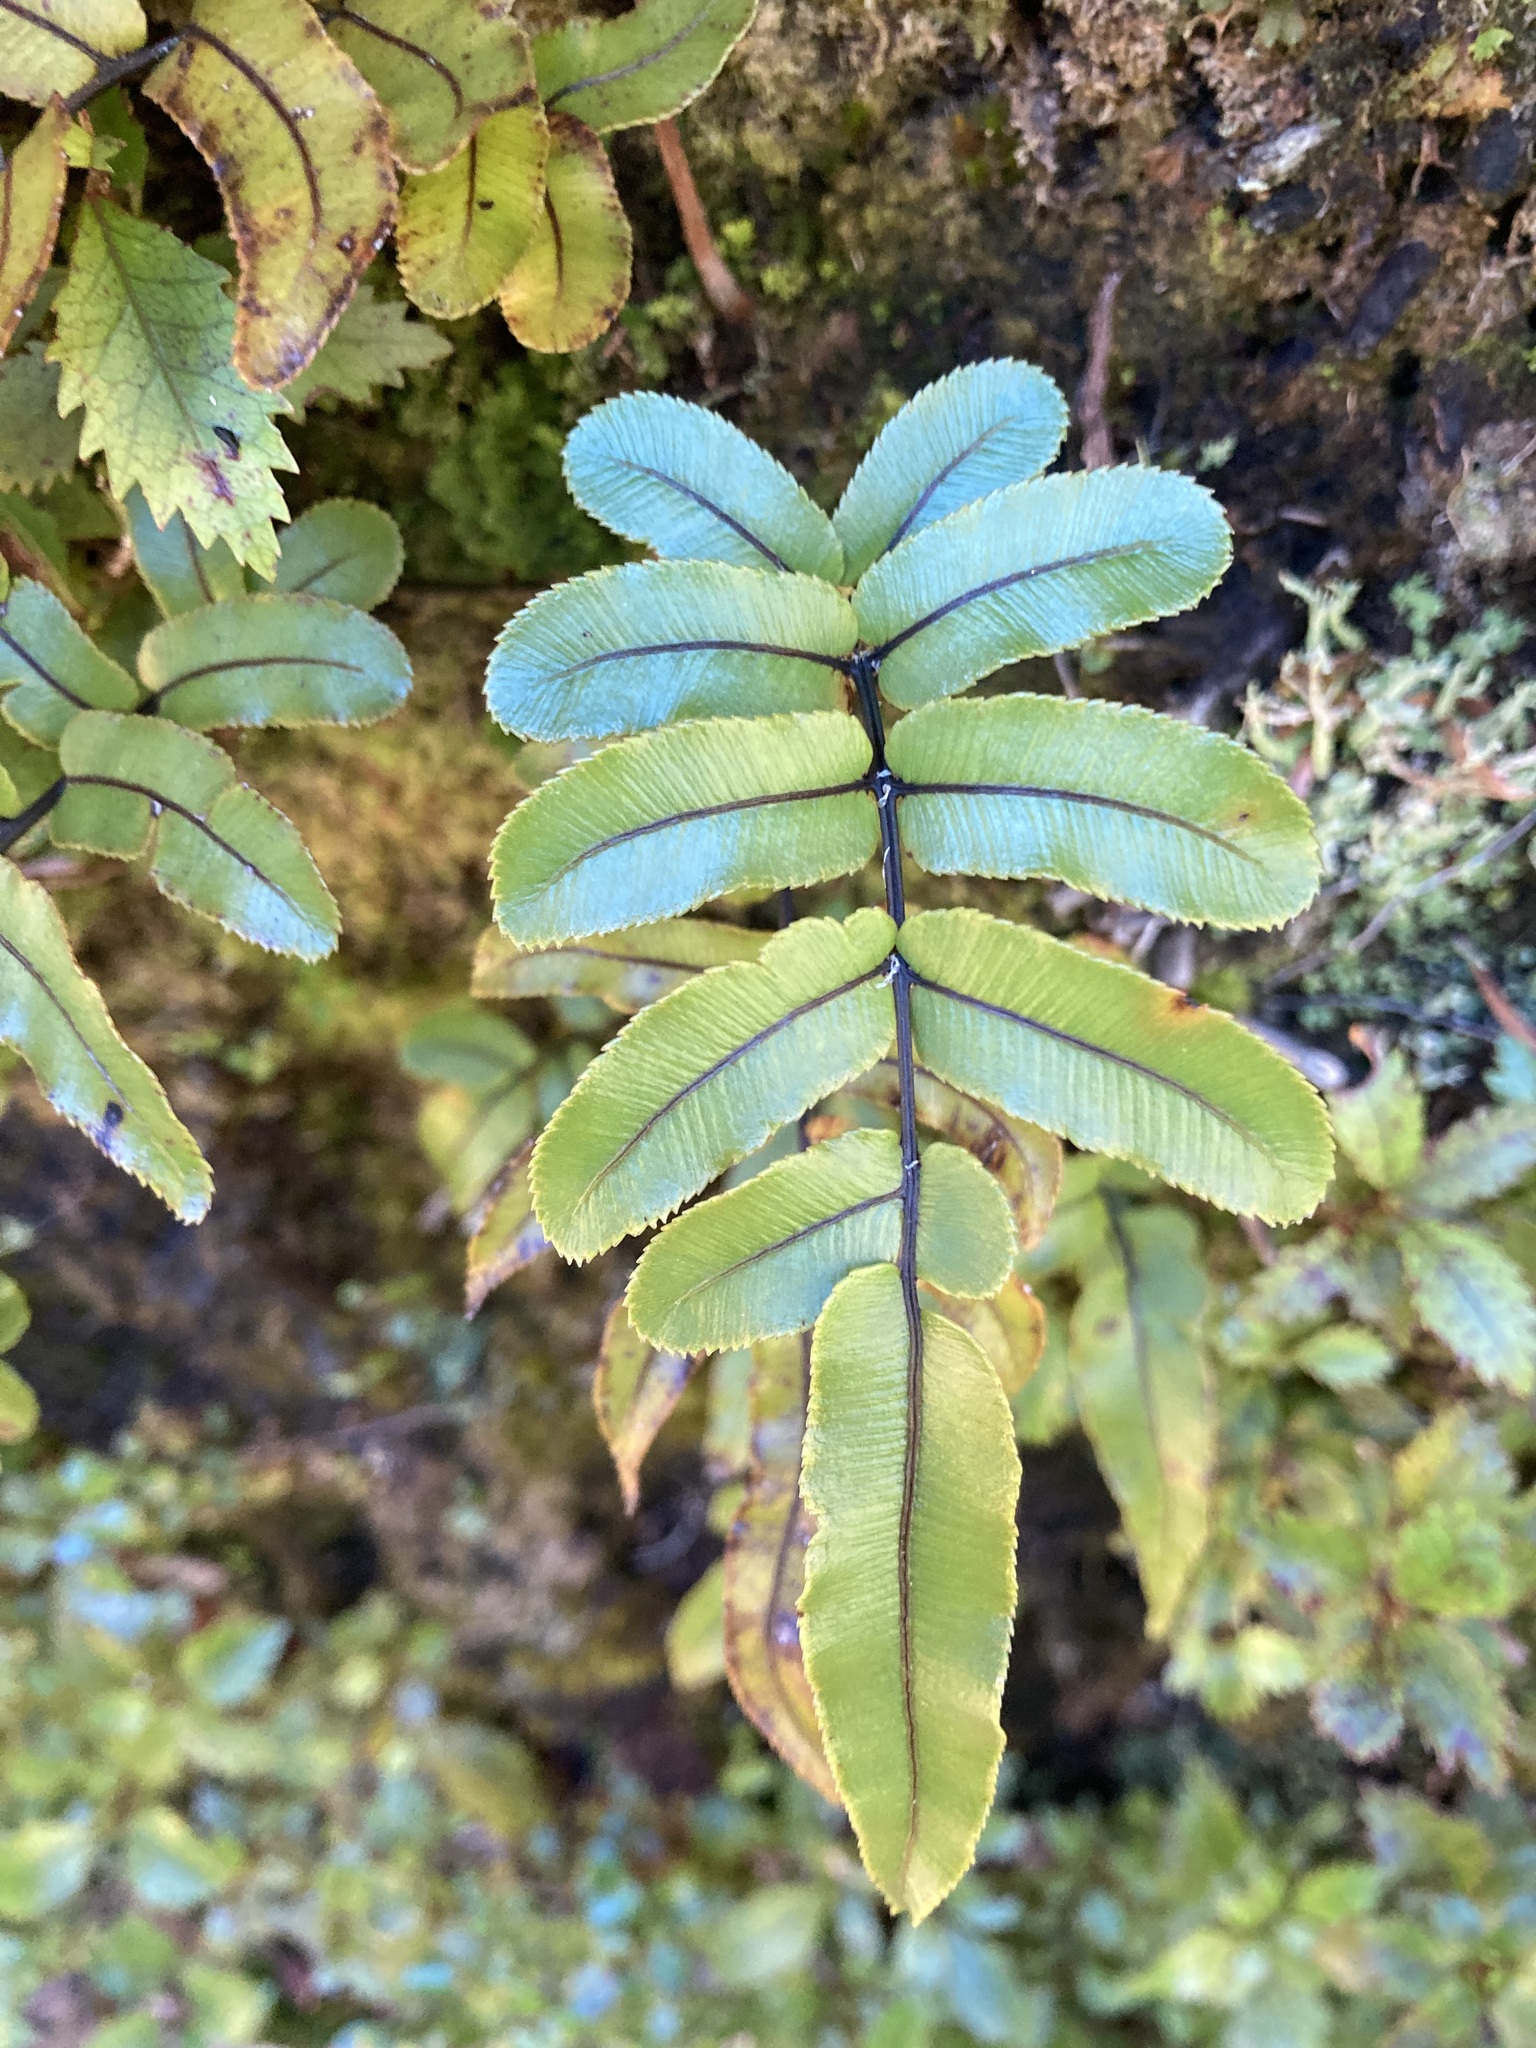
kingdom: Plantae
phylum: Tracheophyta
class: Polypodiopsida
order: Polypodiales
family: Blechnaceae
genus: Parablechnum
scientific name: Parablechnum procerum
